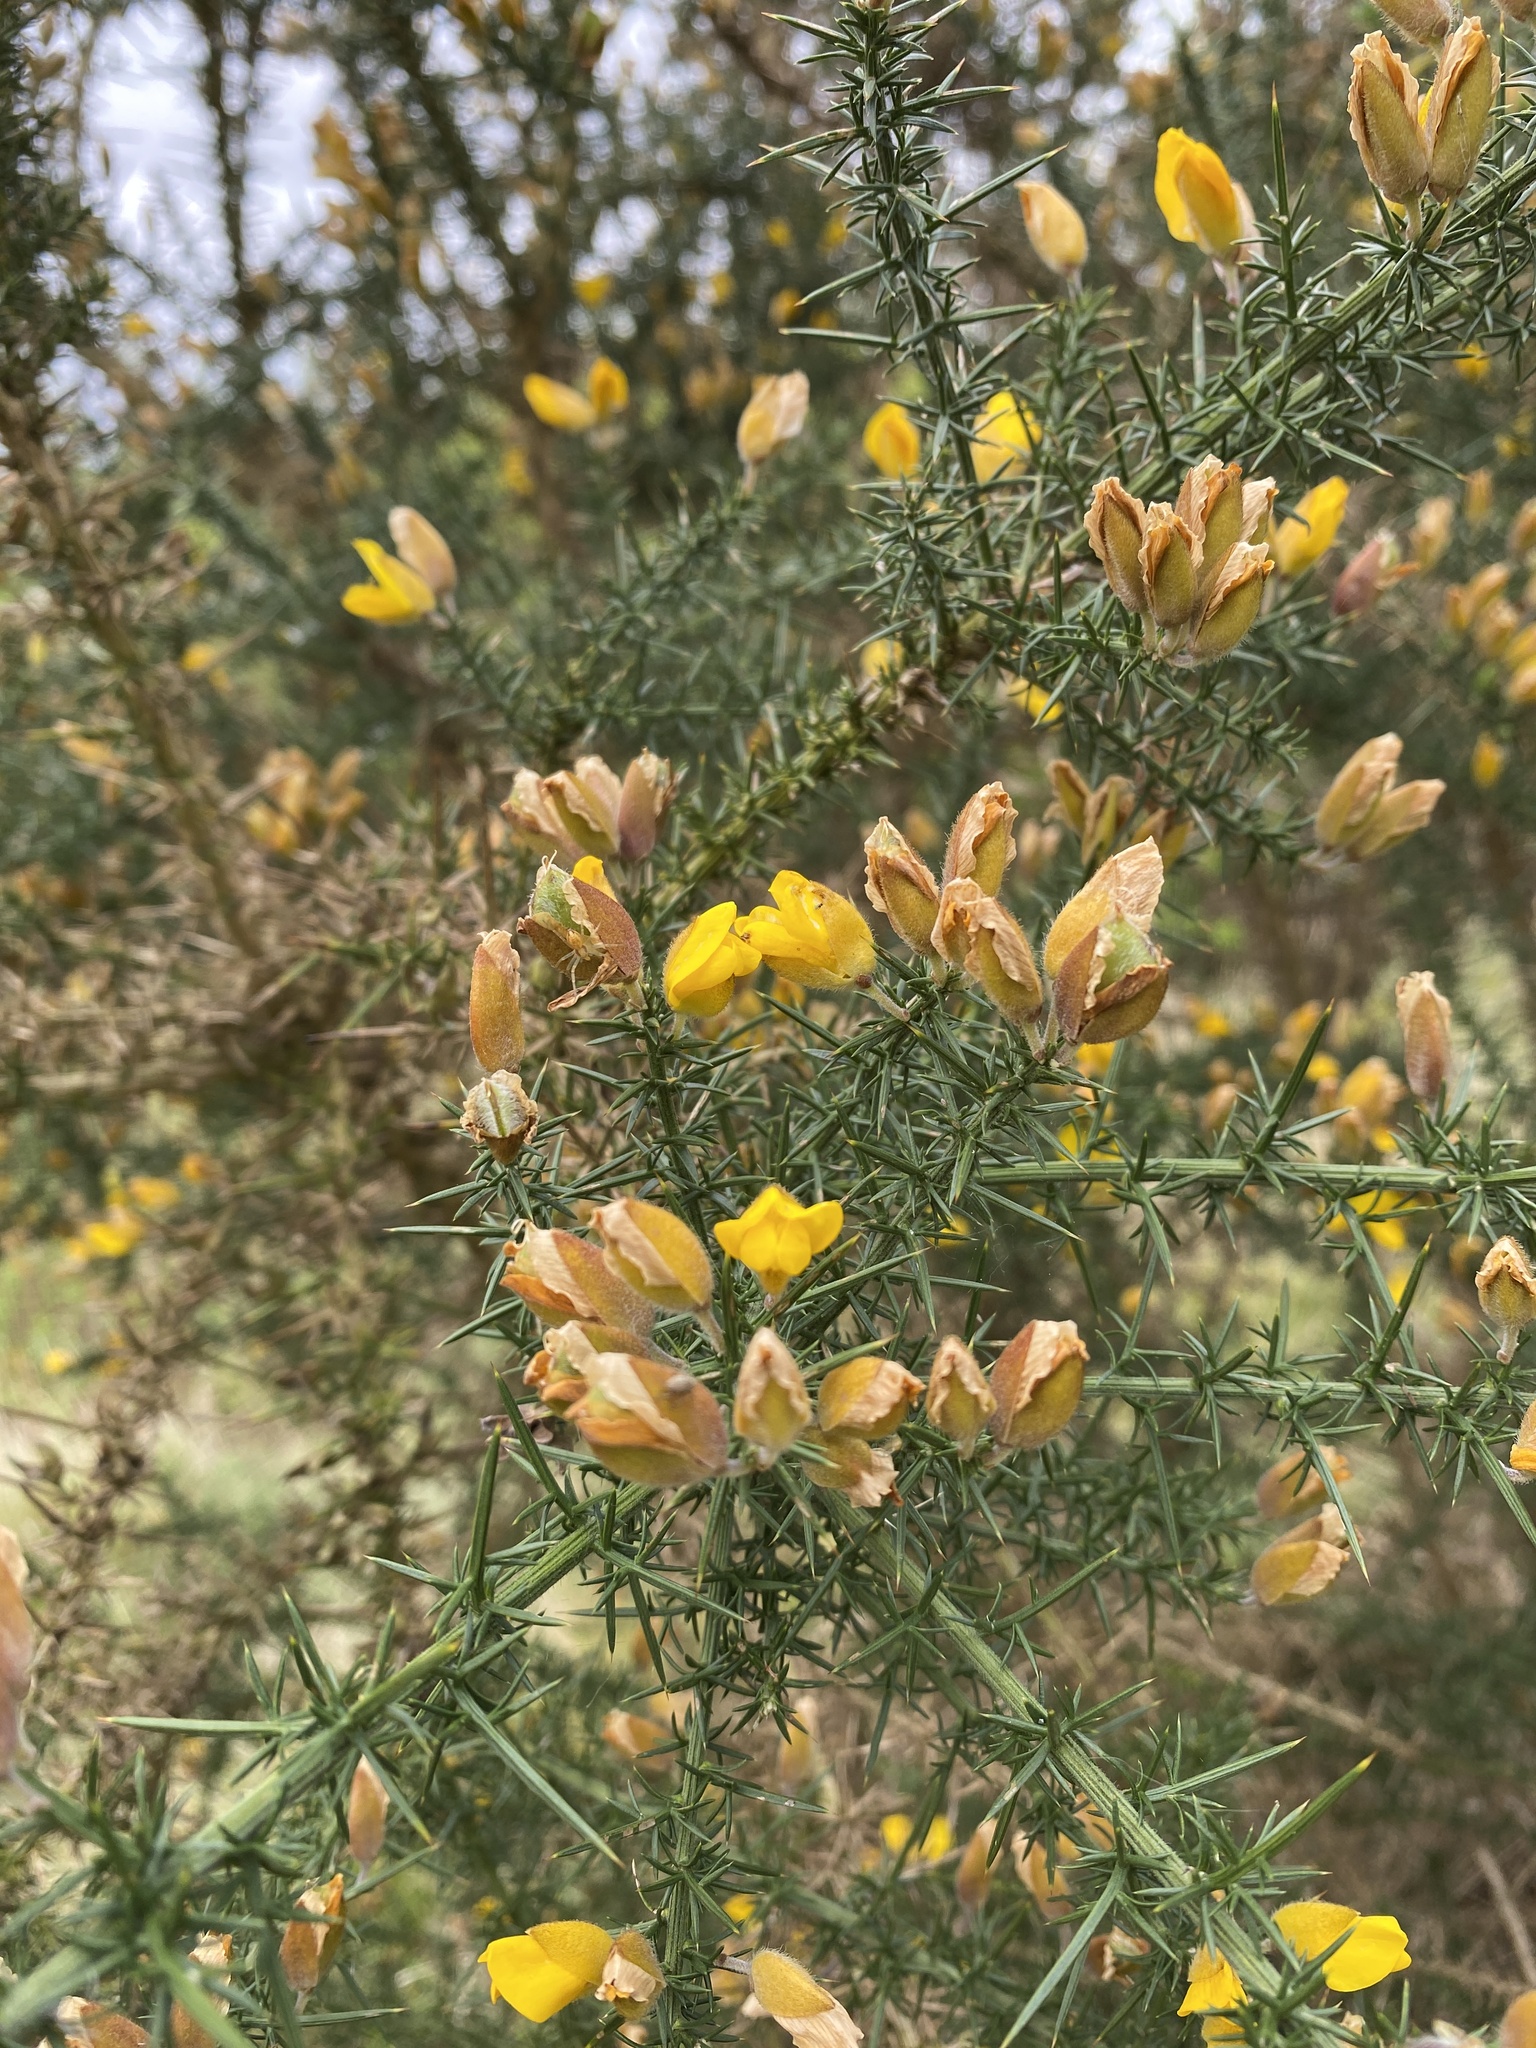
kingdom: Plantae
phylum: Tracheophyta
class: Magnoliopsida
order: Fabales
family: Fabaceae
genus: Ulex
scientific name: Ulex europaeus
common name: Common gorse
